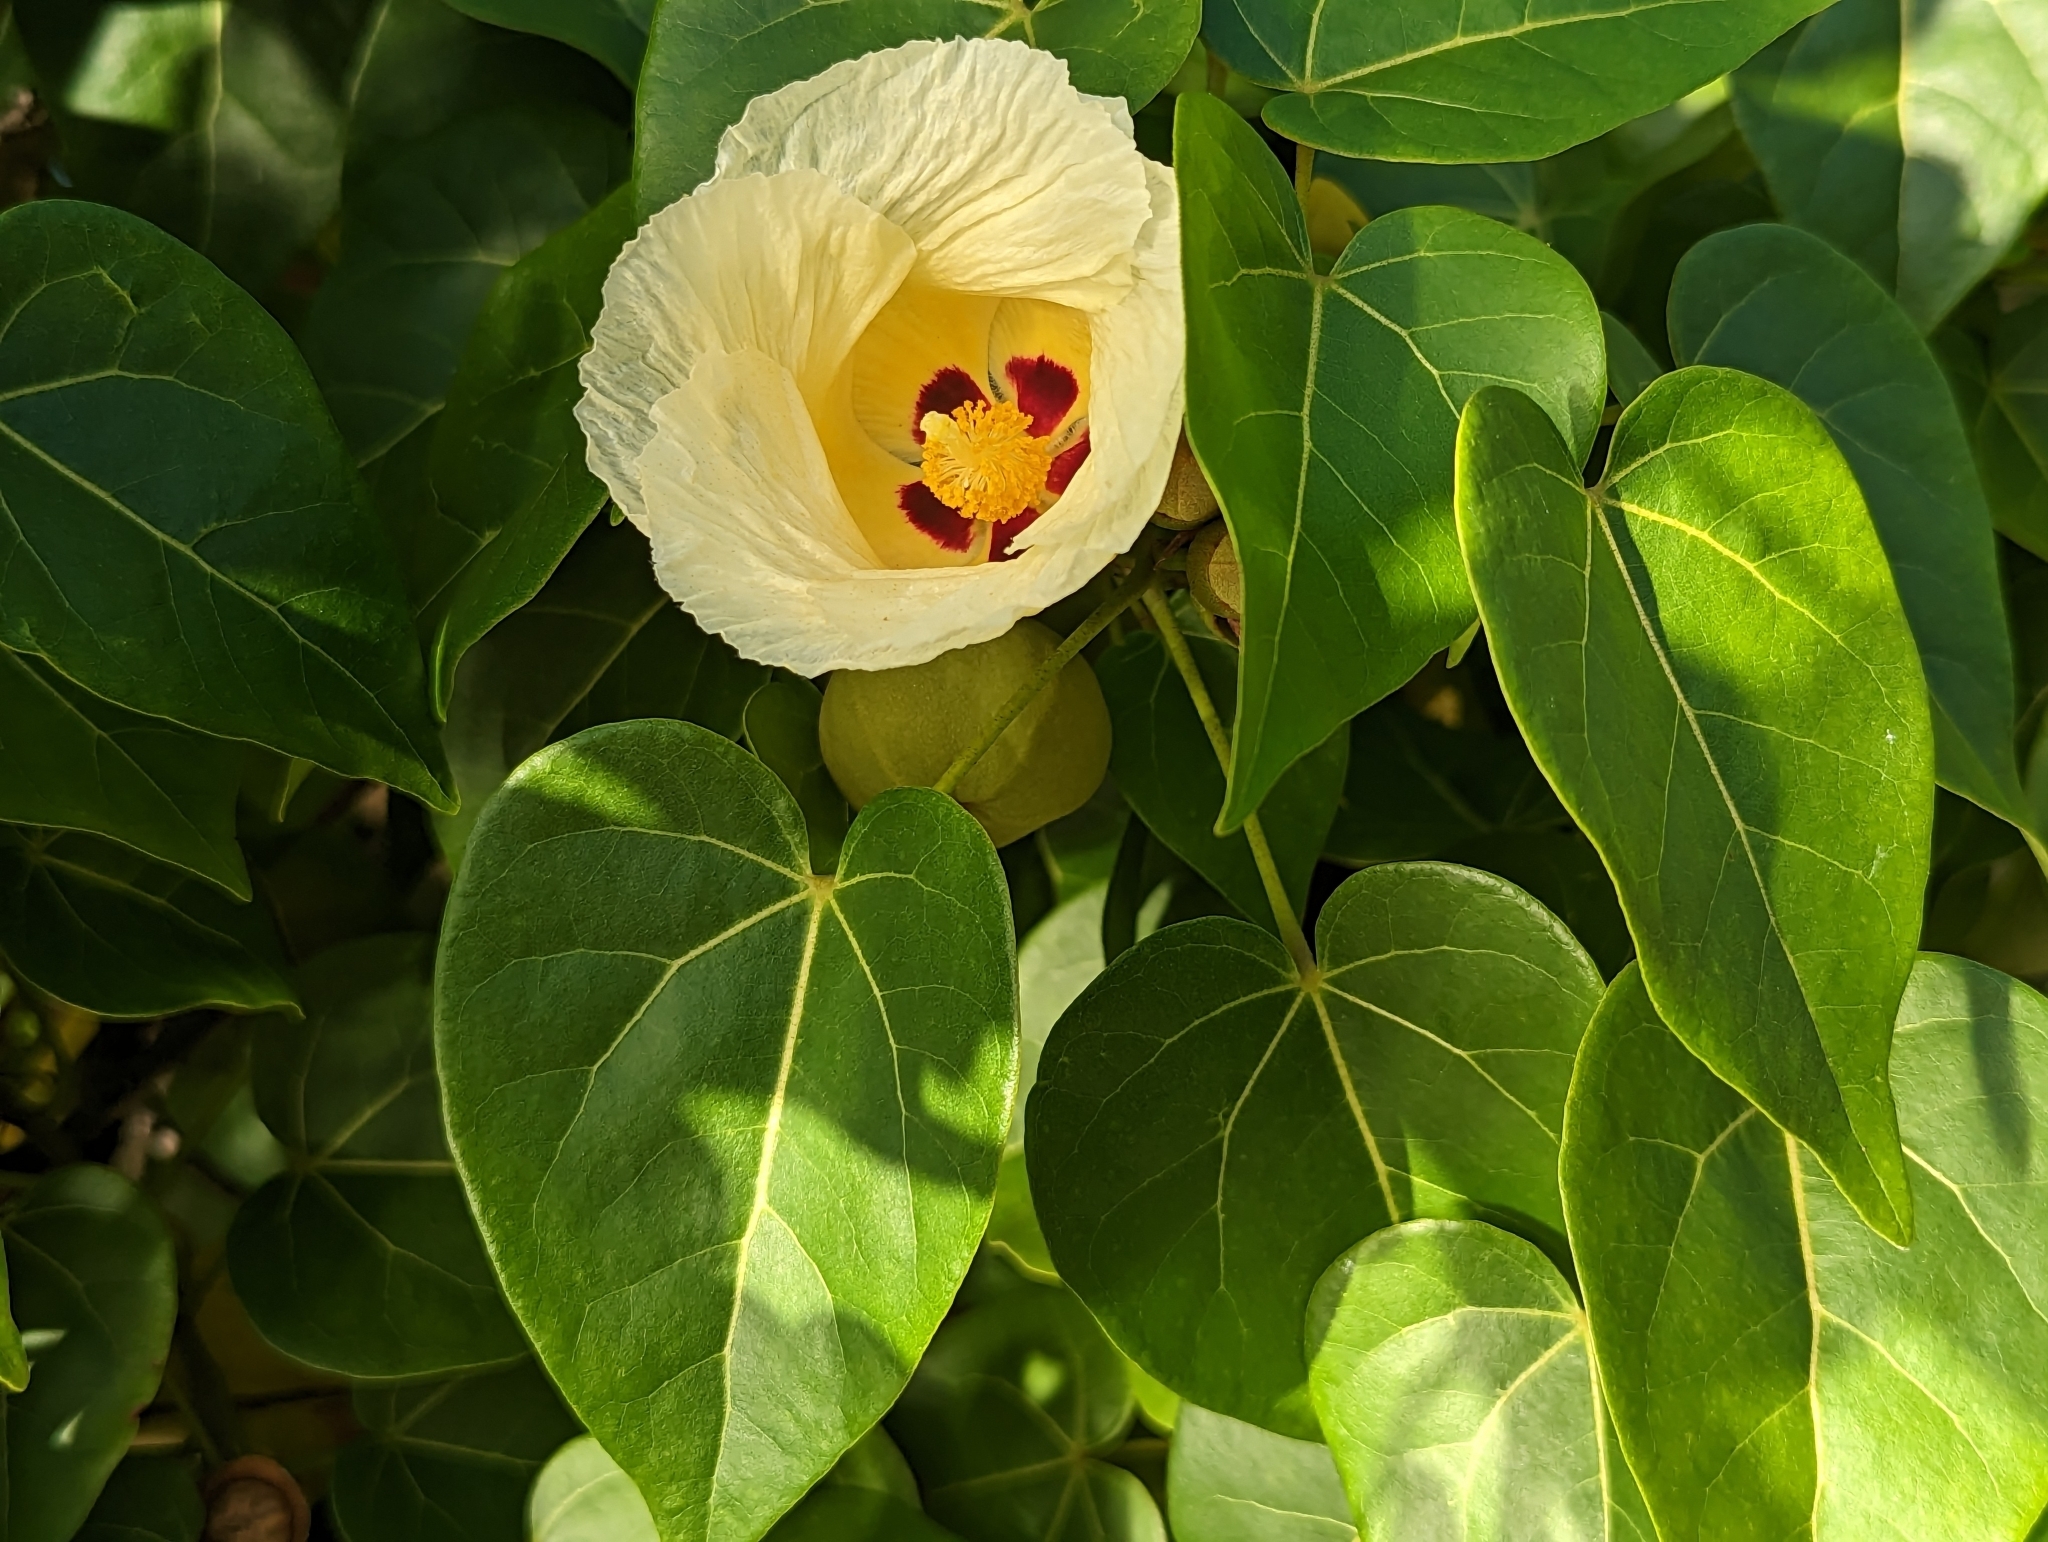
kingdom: Plantae
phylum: Tracheophyta
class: Magnoliopsida
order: Malvales
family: Malvaceae
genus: Thespesia
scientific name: Thespesia populnea
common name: Seaside mahoe
